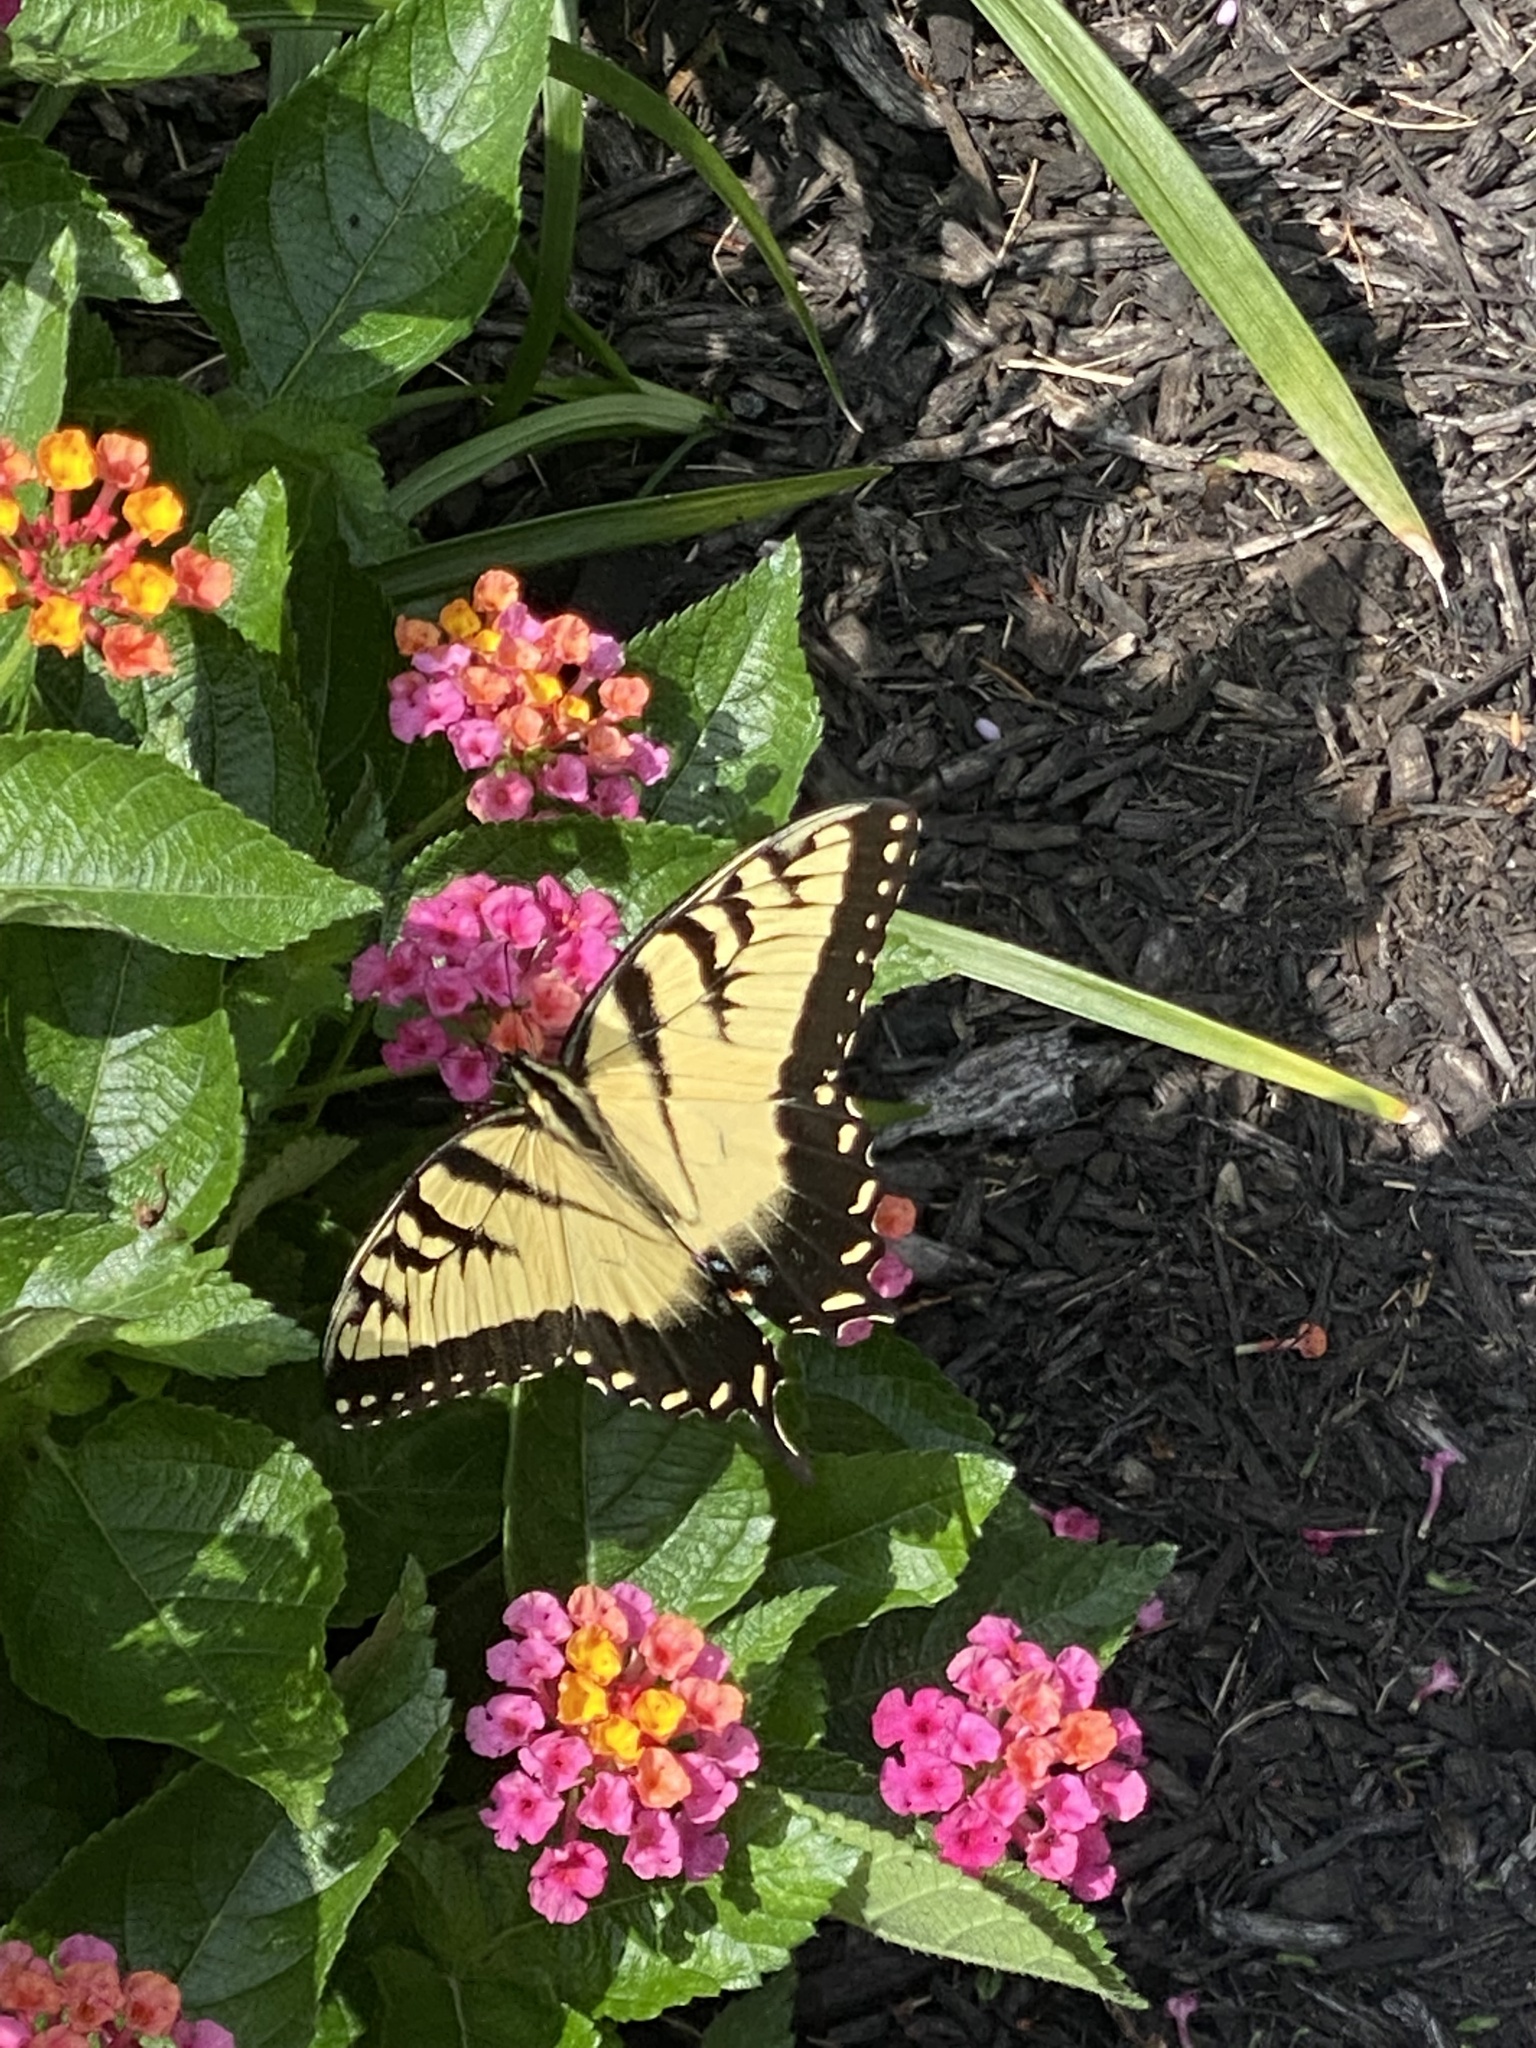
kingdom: Animalia
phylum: Arthropoda
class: Insecta
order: Lepidoptera
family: Papilionidae
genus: Papilio
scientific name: Papilio glaucus
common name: Tiger swallowtail
